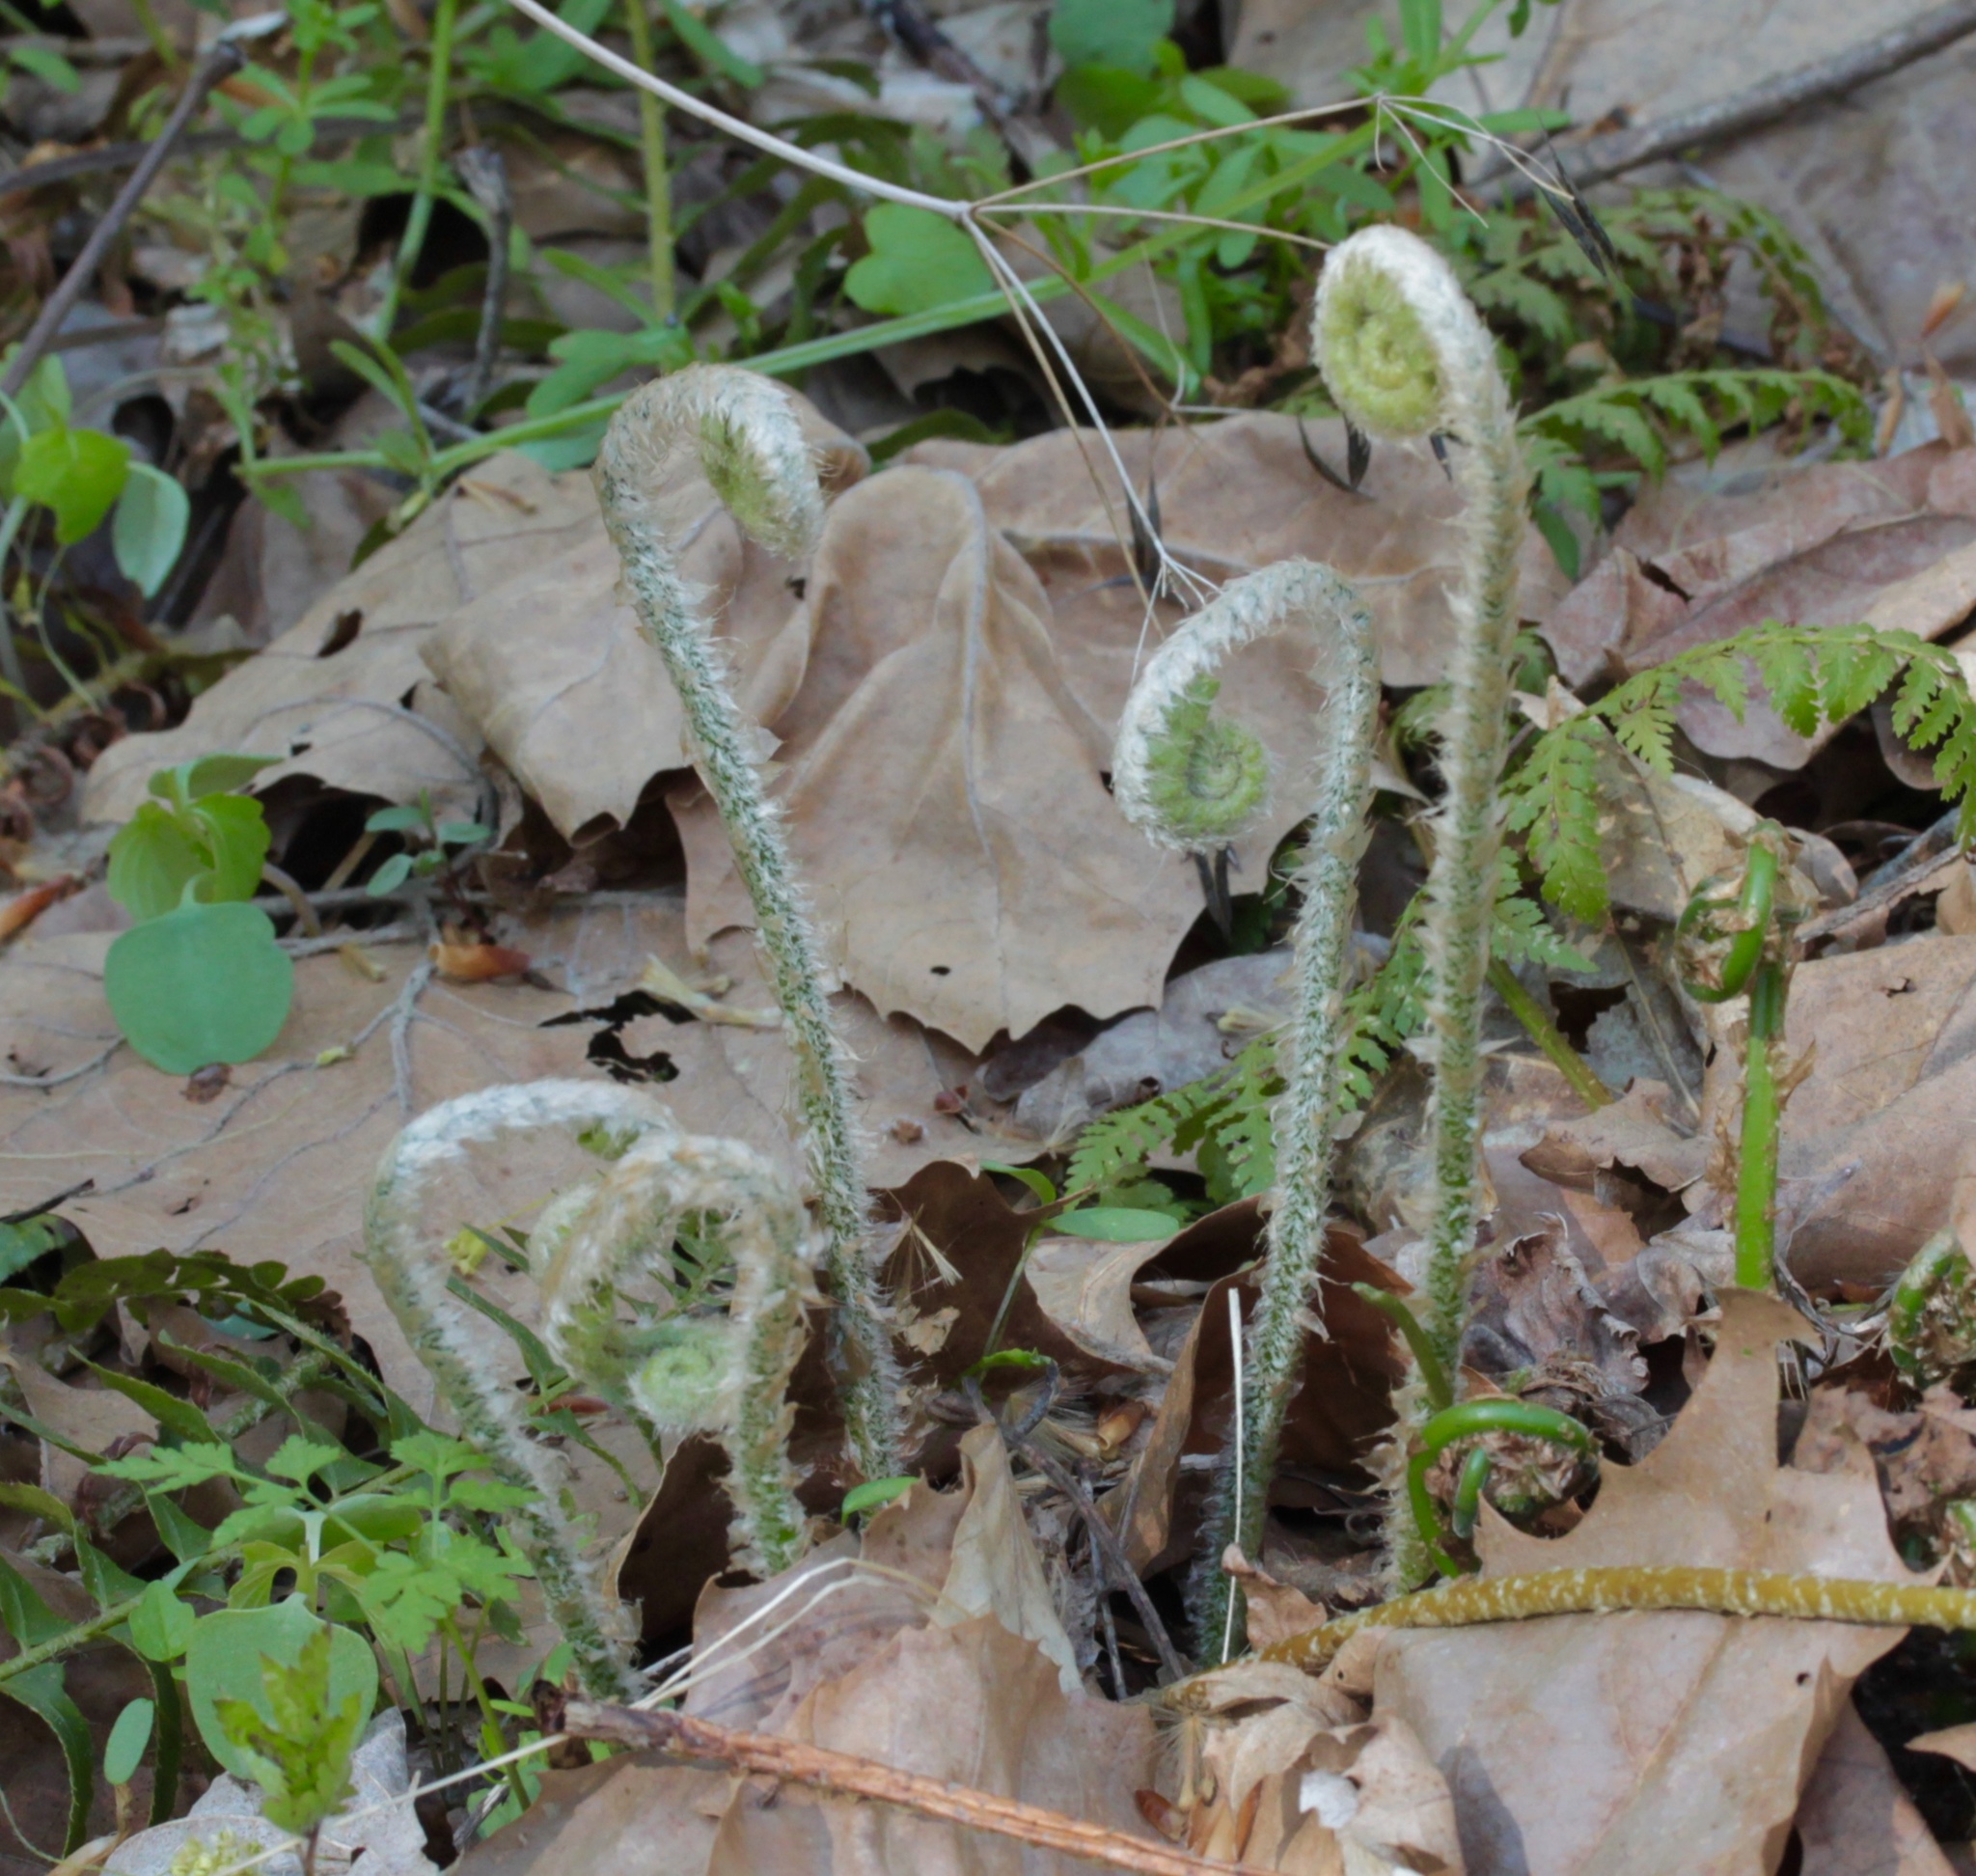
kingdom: Plantae
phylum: Tracheophyta
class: Polypodiopsida
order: Polypodiales
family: Dryopteridaceae
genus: Polystichum
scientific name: Polystichum acrostichoides
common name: Christmas fern
